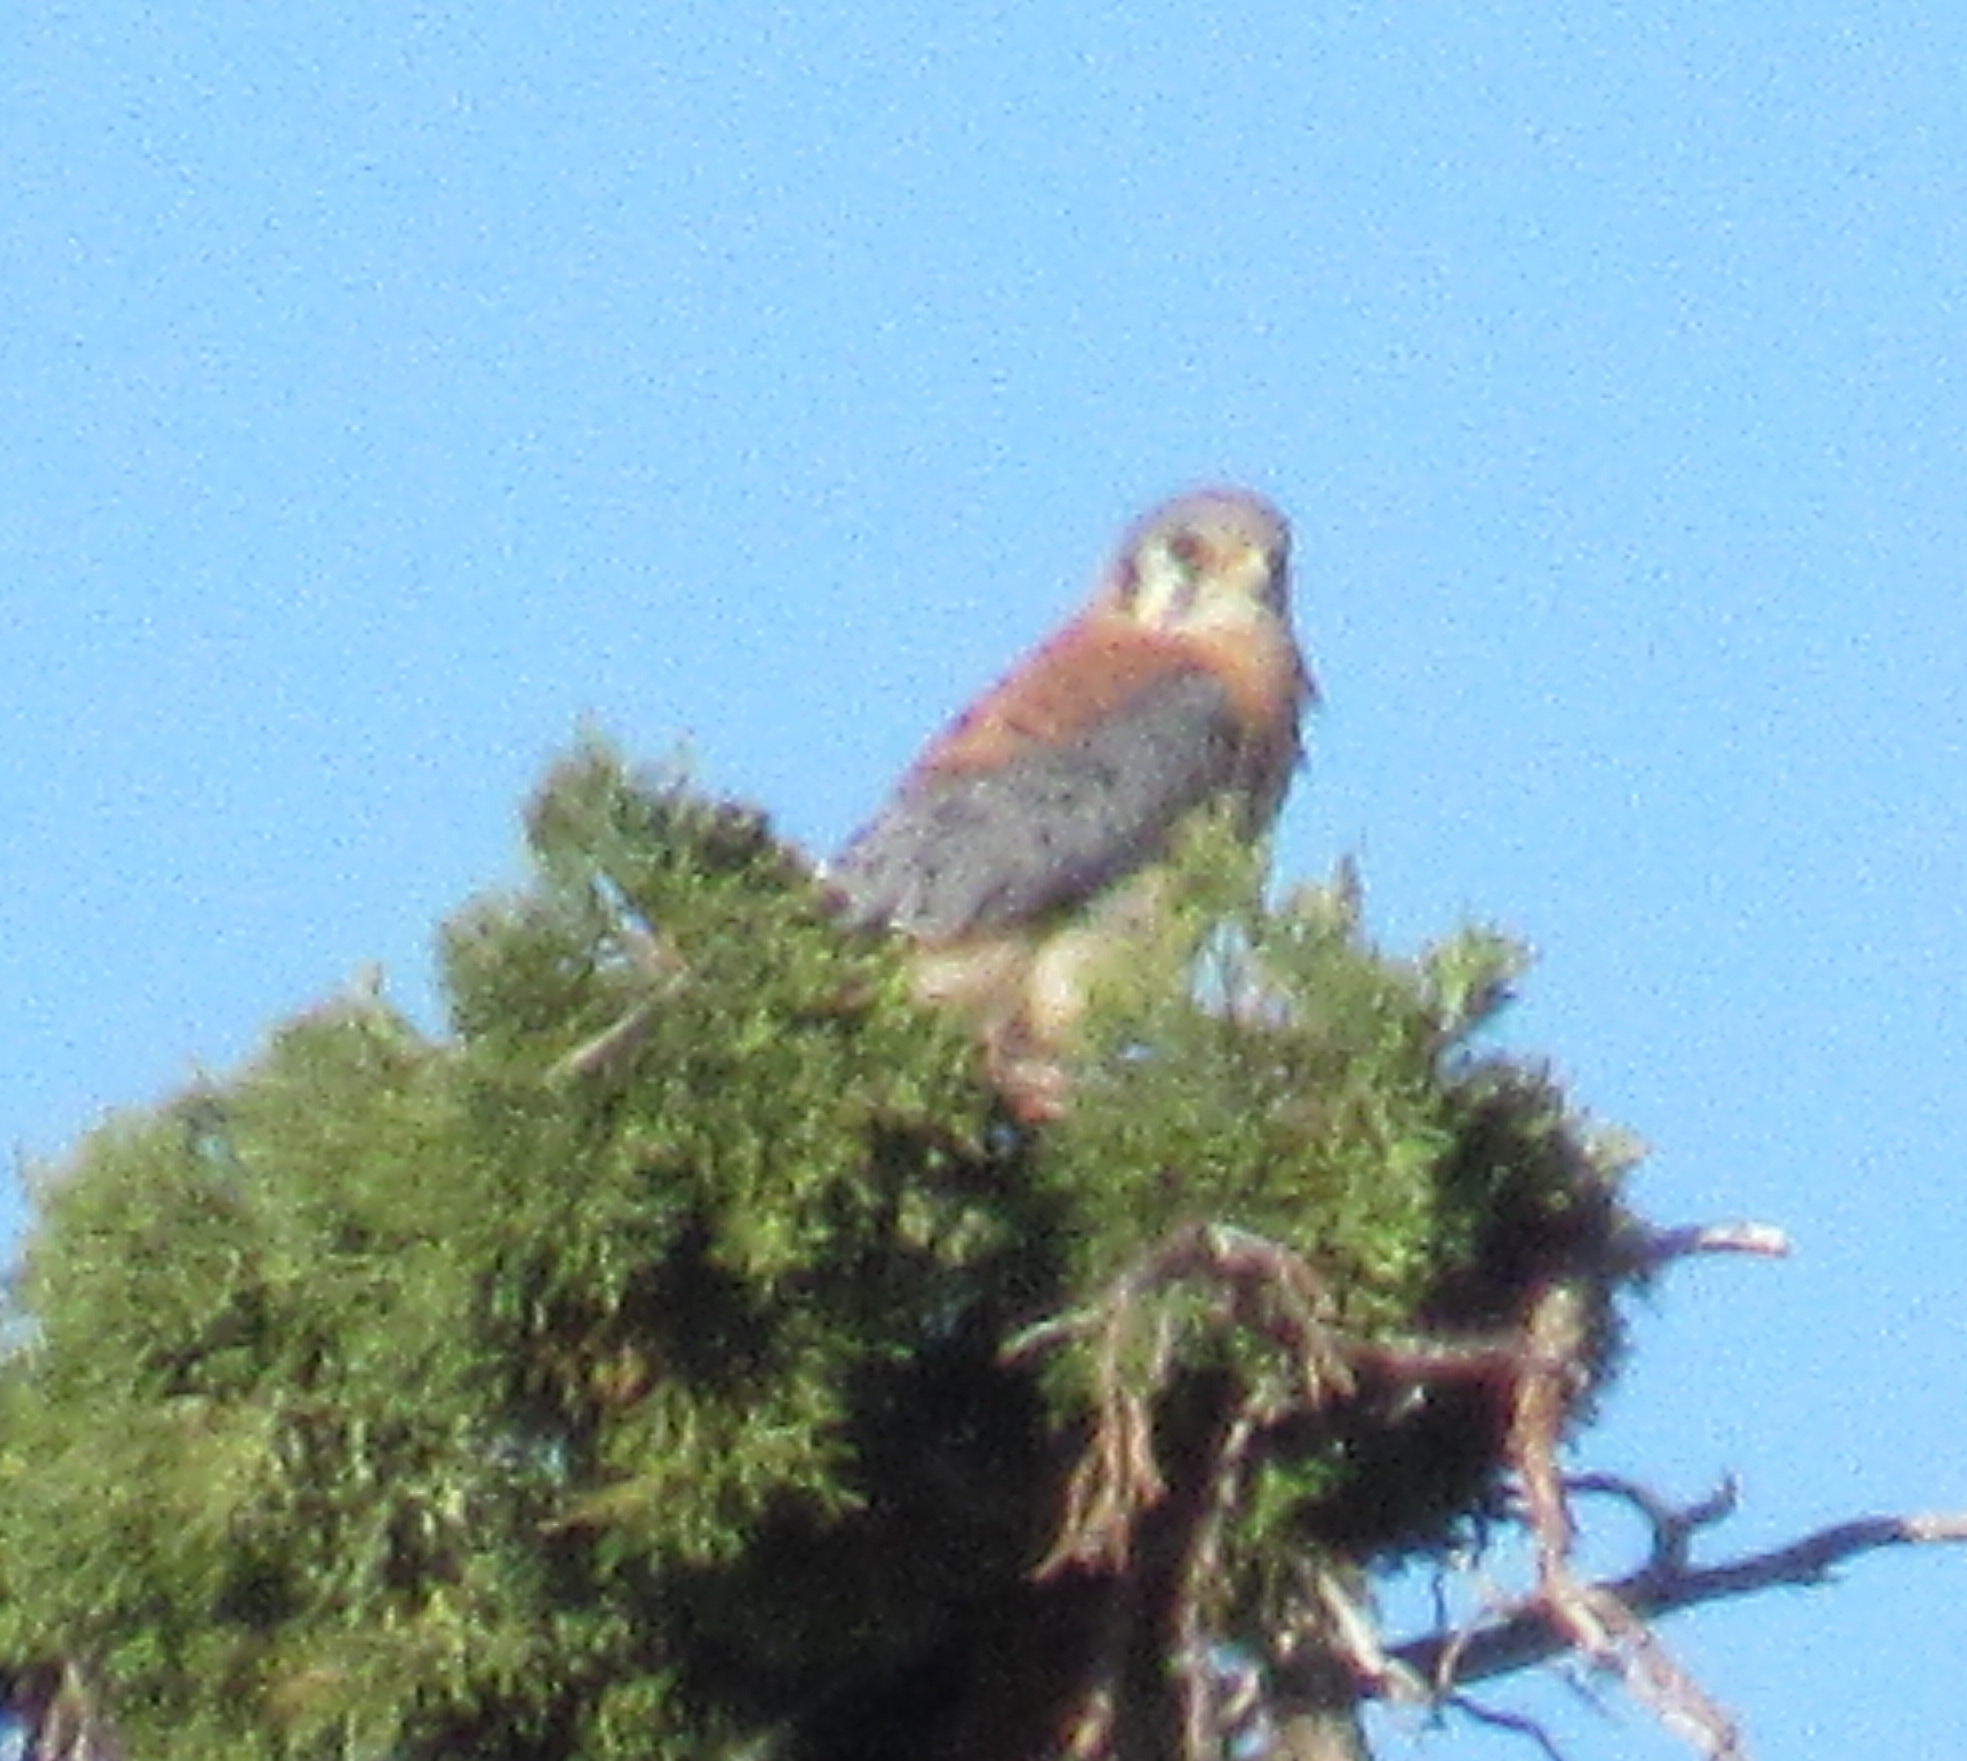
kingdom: Animalia
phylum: Chordata
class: Aves
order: Falconiformes
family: Falconidae
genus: Falco
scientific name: Falco sparverius
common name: American kestrel
